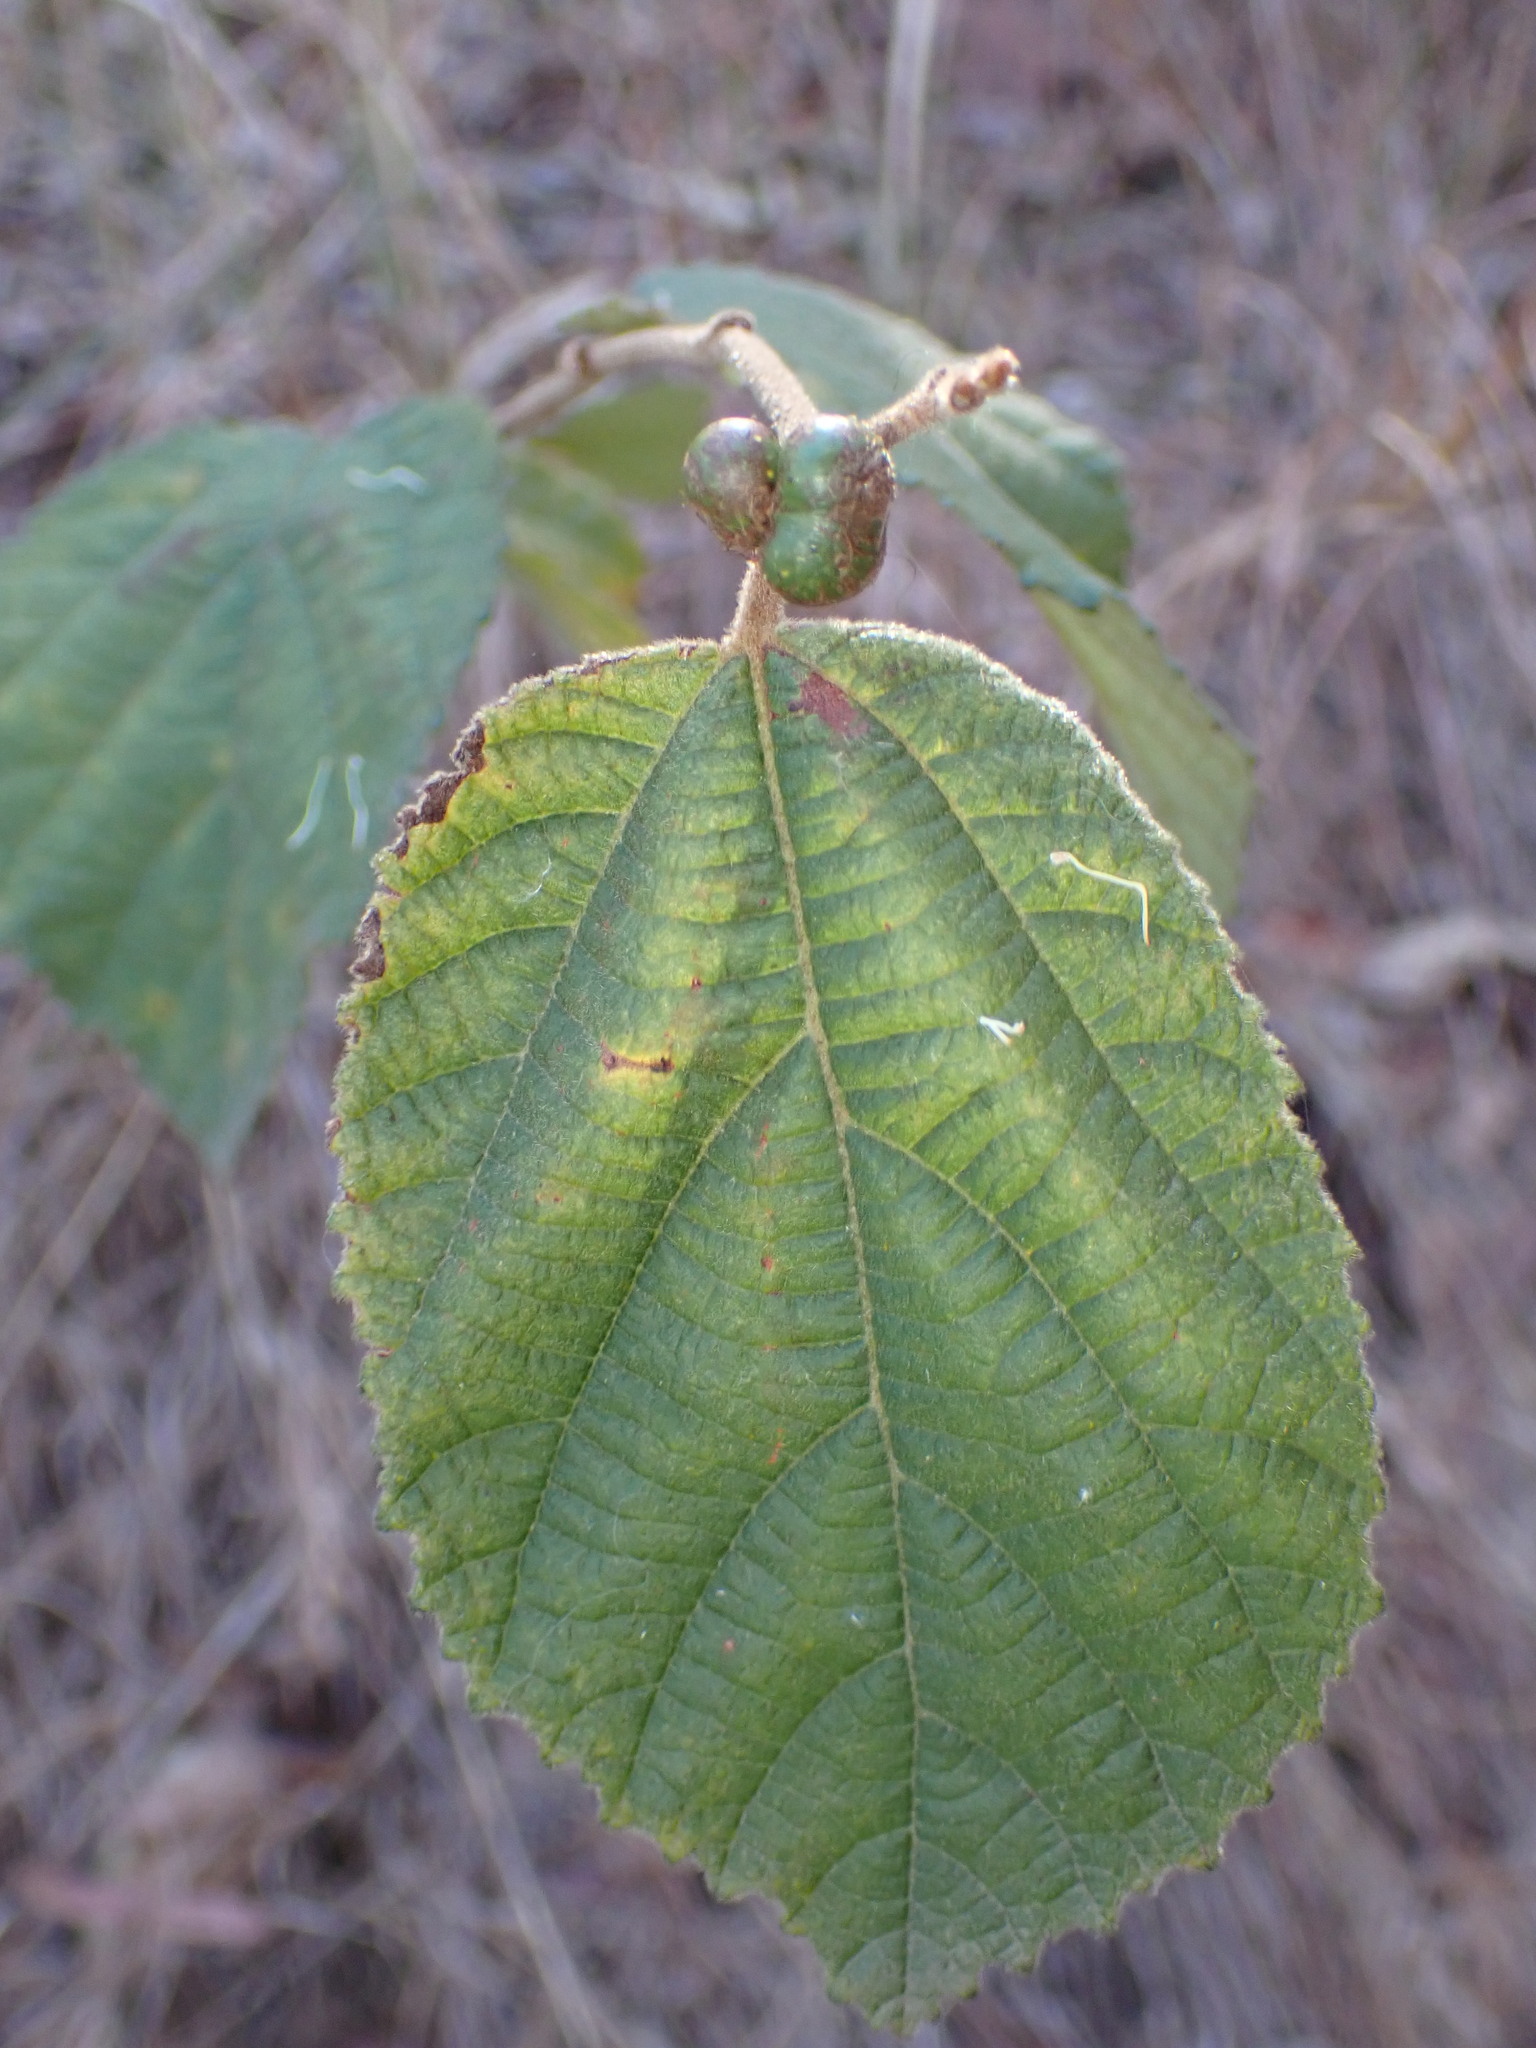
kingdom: Plantae
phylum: Tracheophyta
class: Magnoliopsida
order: Malvales
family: Malvaceae
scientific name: Malvaceae
